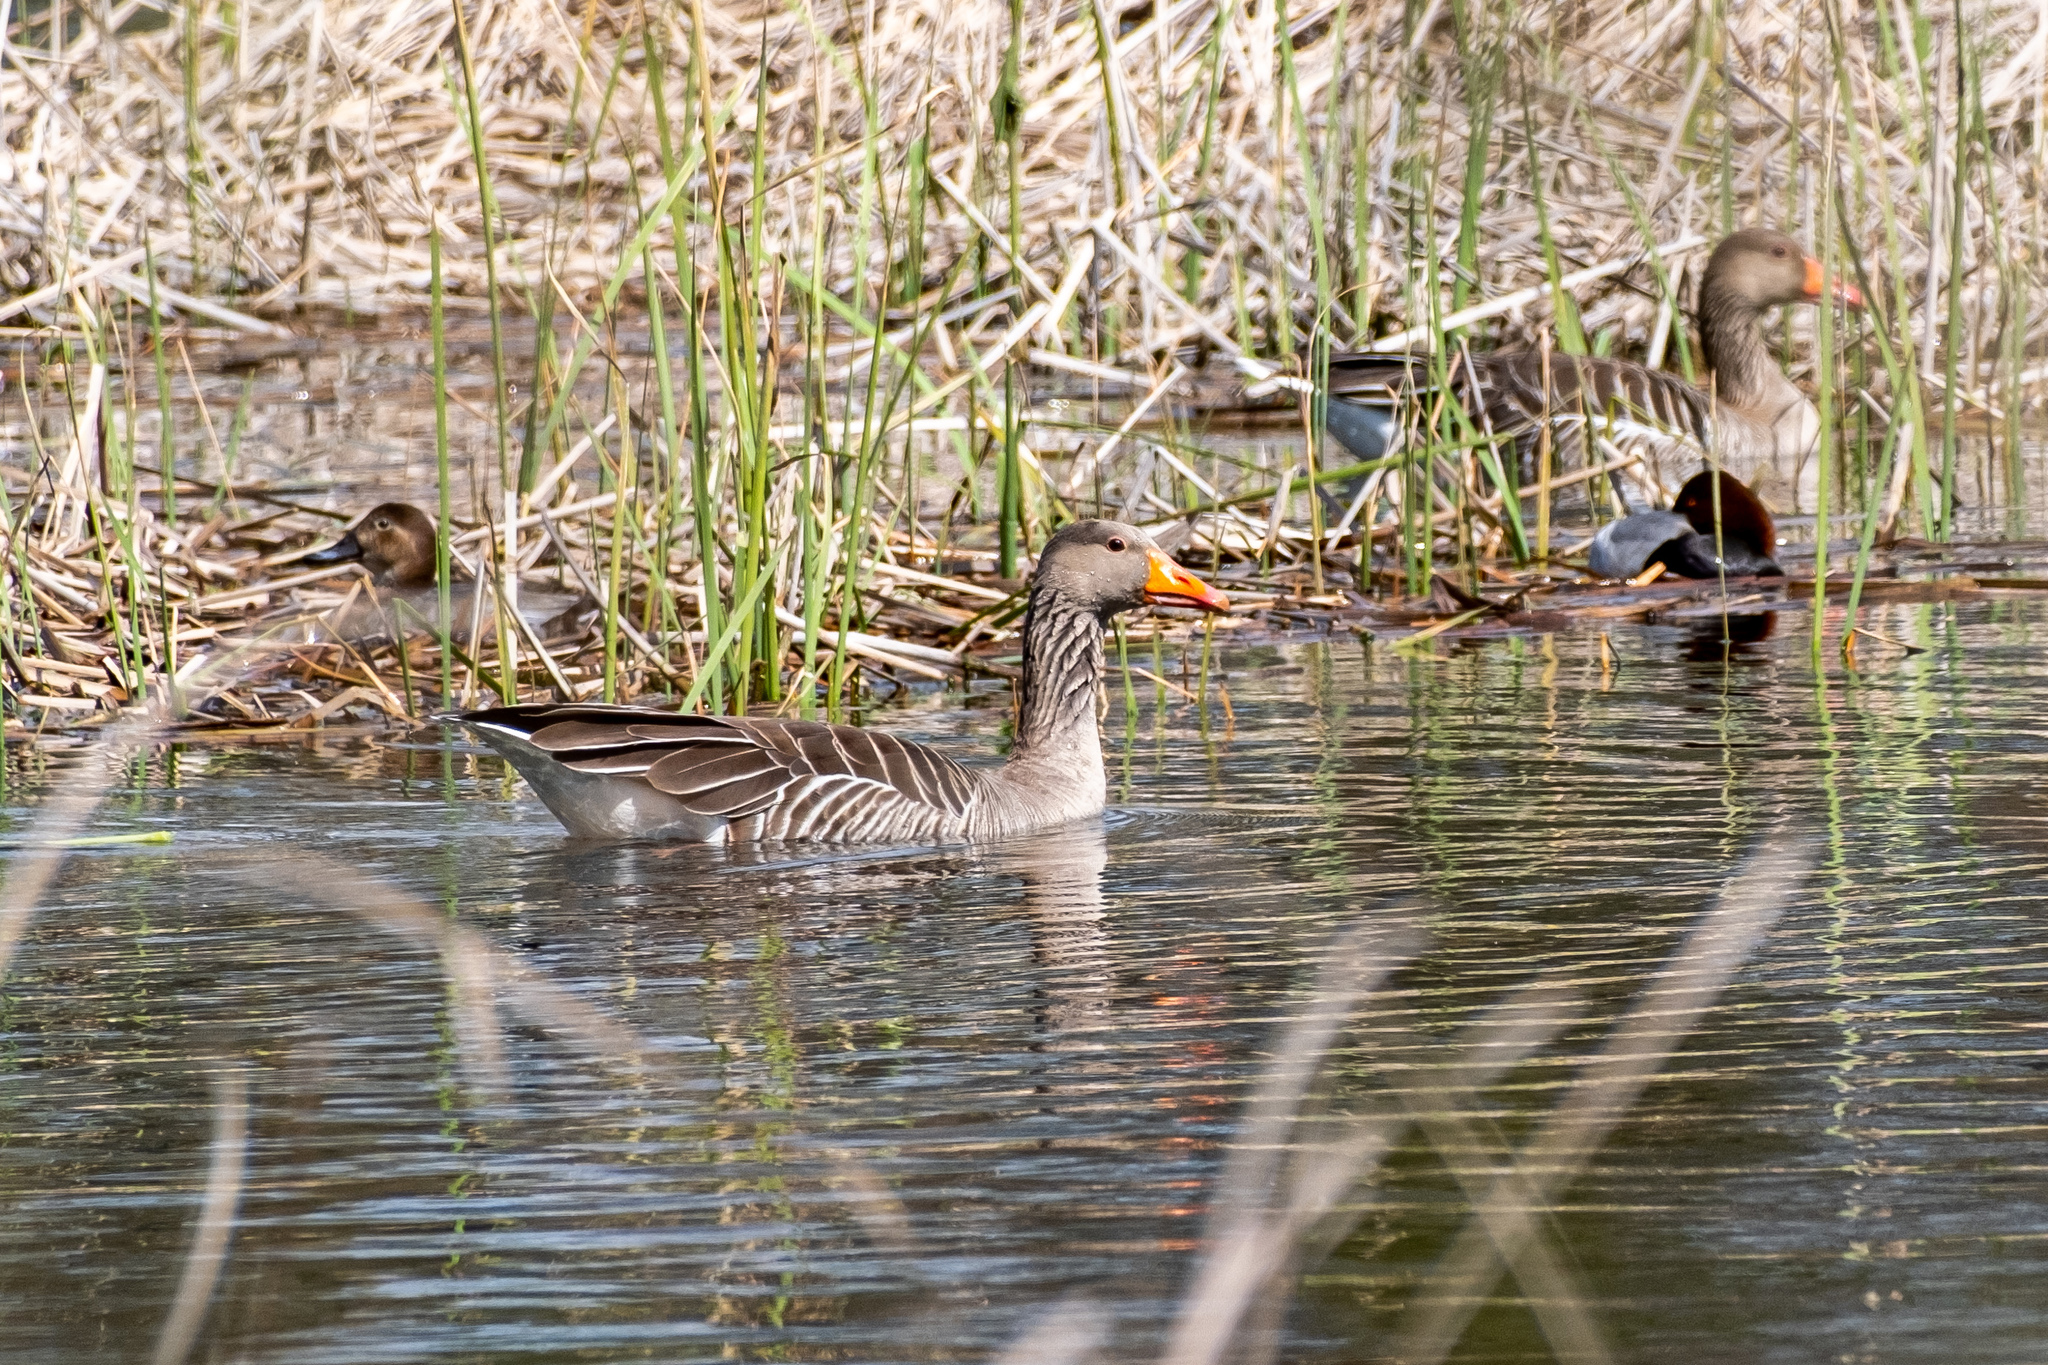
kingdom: Animalia
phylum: Chordata
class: Aves
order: Anseriformes
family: Anatidae
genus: Anser
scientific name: Anser anser
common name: Greylag goose
